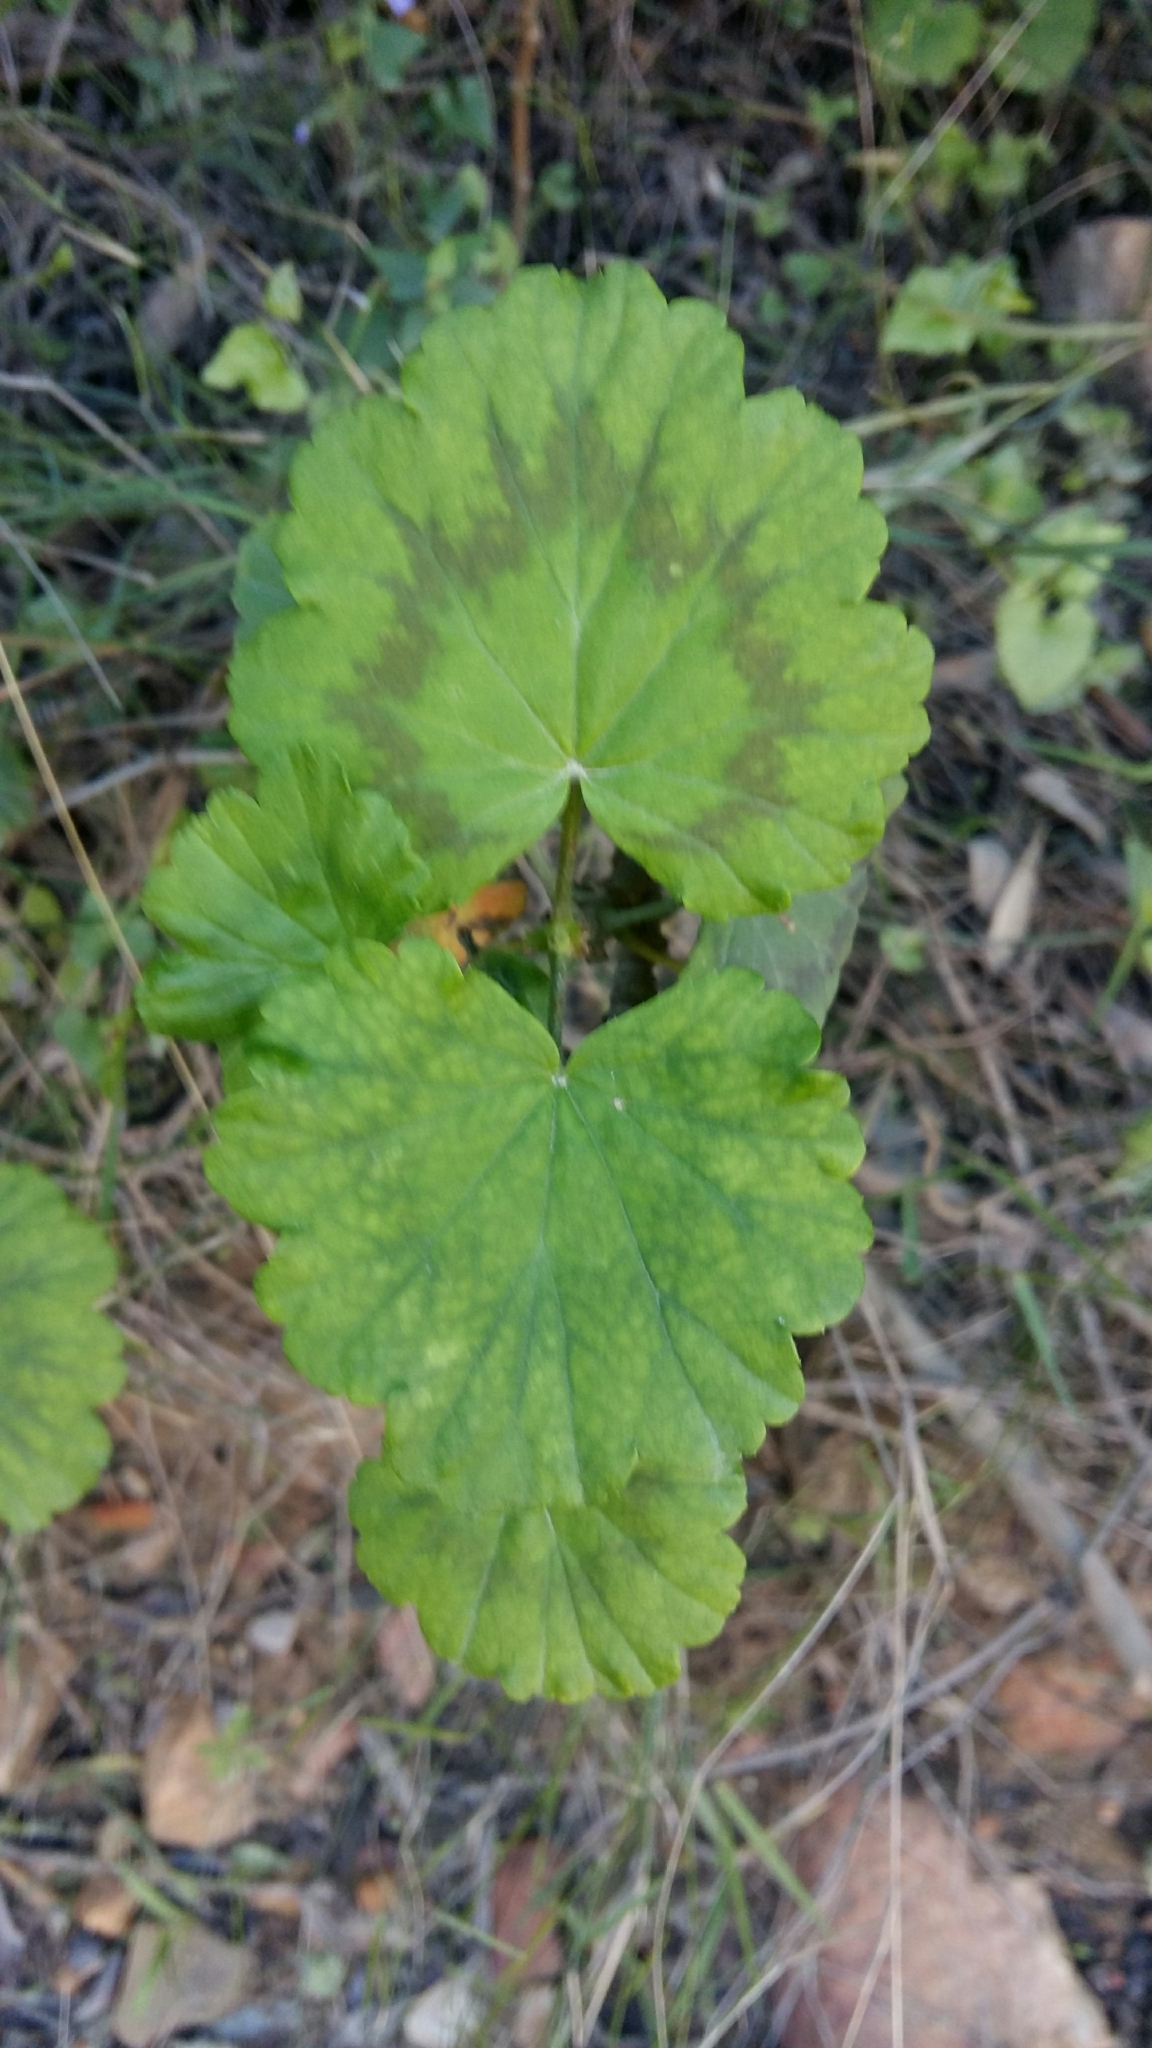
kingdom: Plantae
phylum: Tracheophyta
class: Magnoliopsida
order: Geraniales
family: Geraniaceae
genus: Pelargonium
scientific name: Pelargonium zonale
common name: Horseshoe geranium
